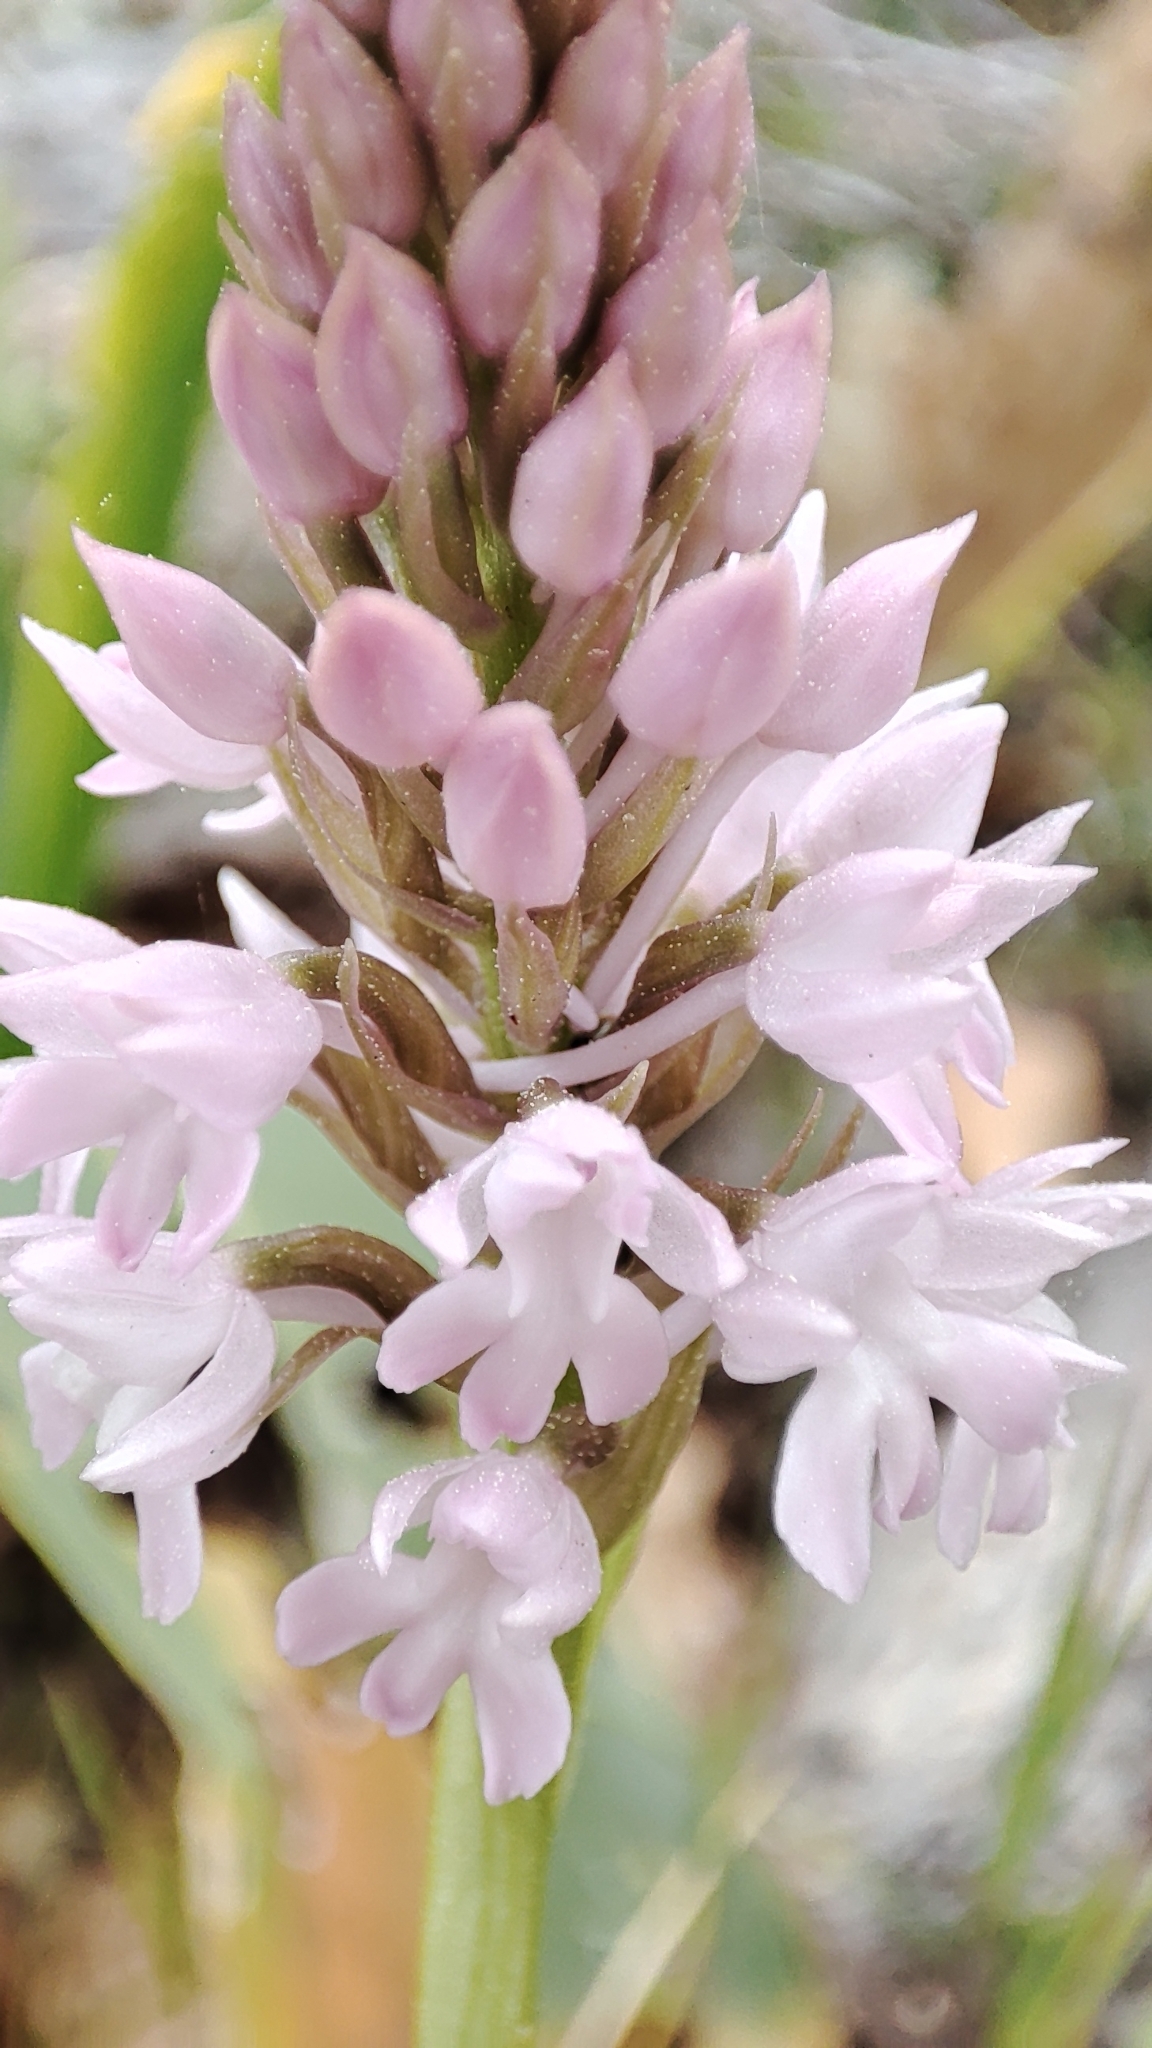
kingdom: Plantae
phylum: Tracheophyta
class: Liliopsida
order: Asparagales
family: Orchidaceae
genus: Anacamptis
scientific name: Anacamptis pyramidalis
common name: Pyramidal orchid
